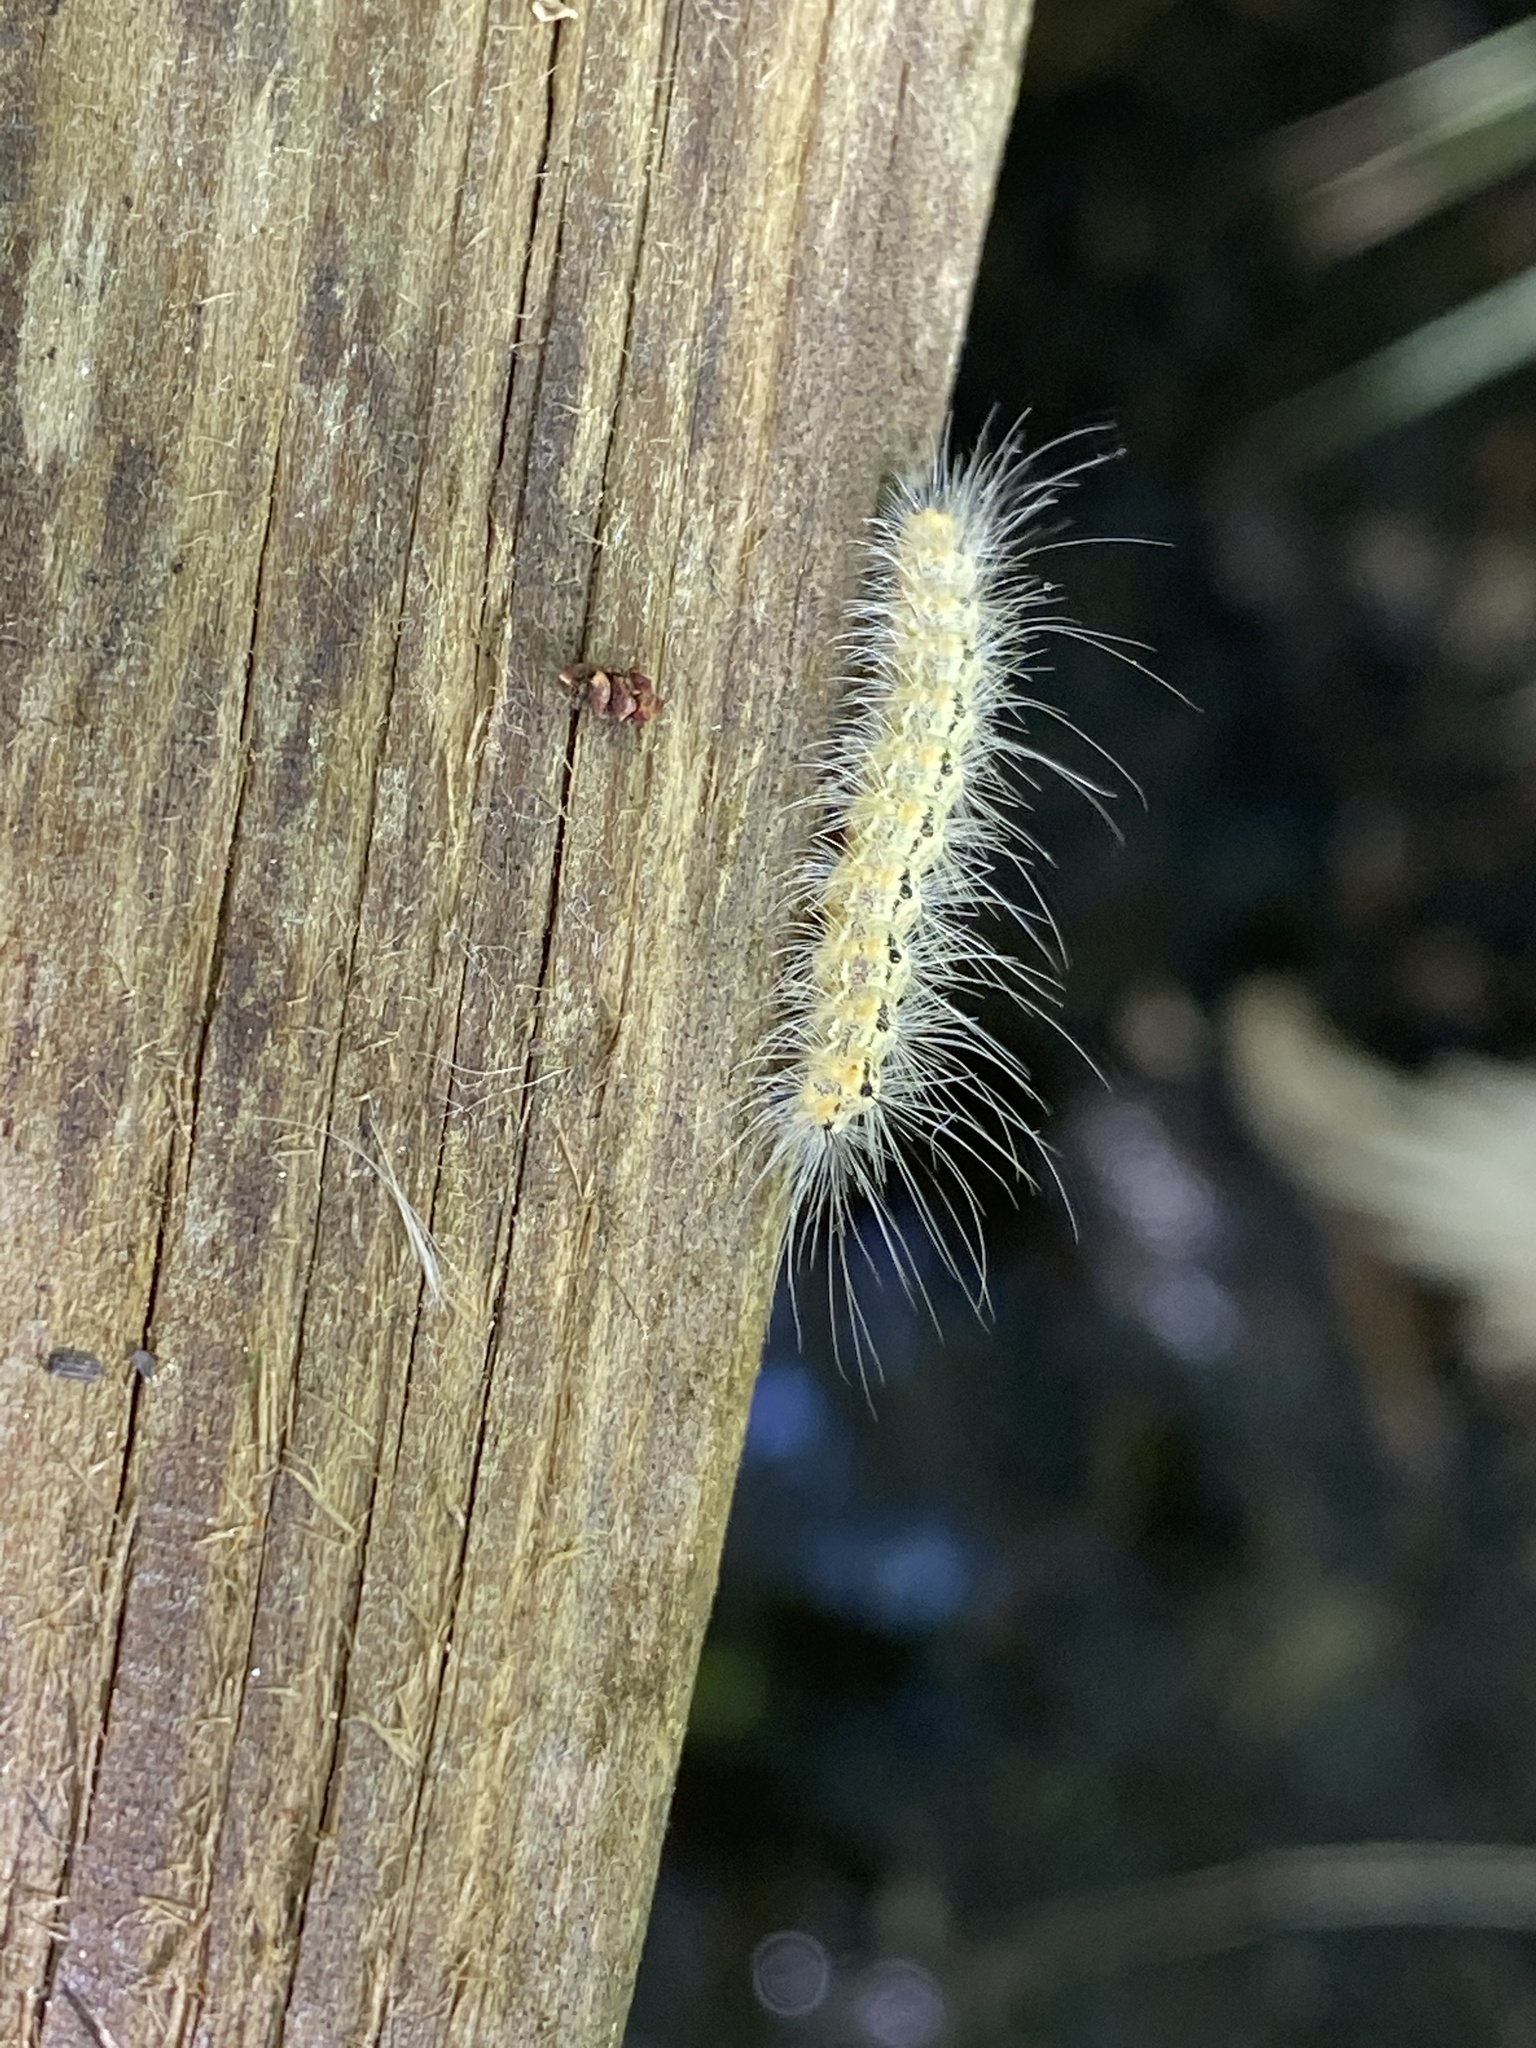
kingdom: Animalia
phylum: Arthropoda
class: Insecta
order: Lepidoptera
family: Erebidae
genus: Hyphantria
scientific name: Hyphantria cunea
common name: American white moth
